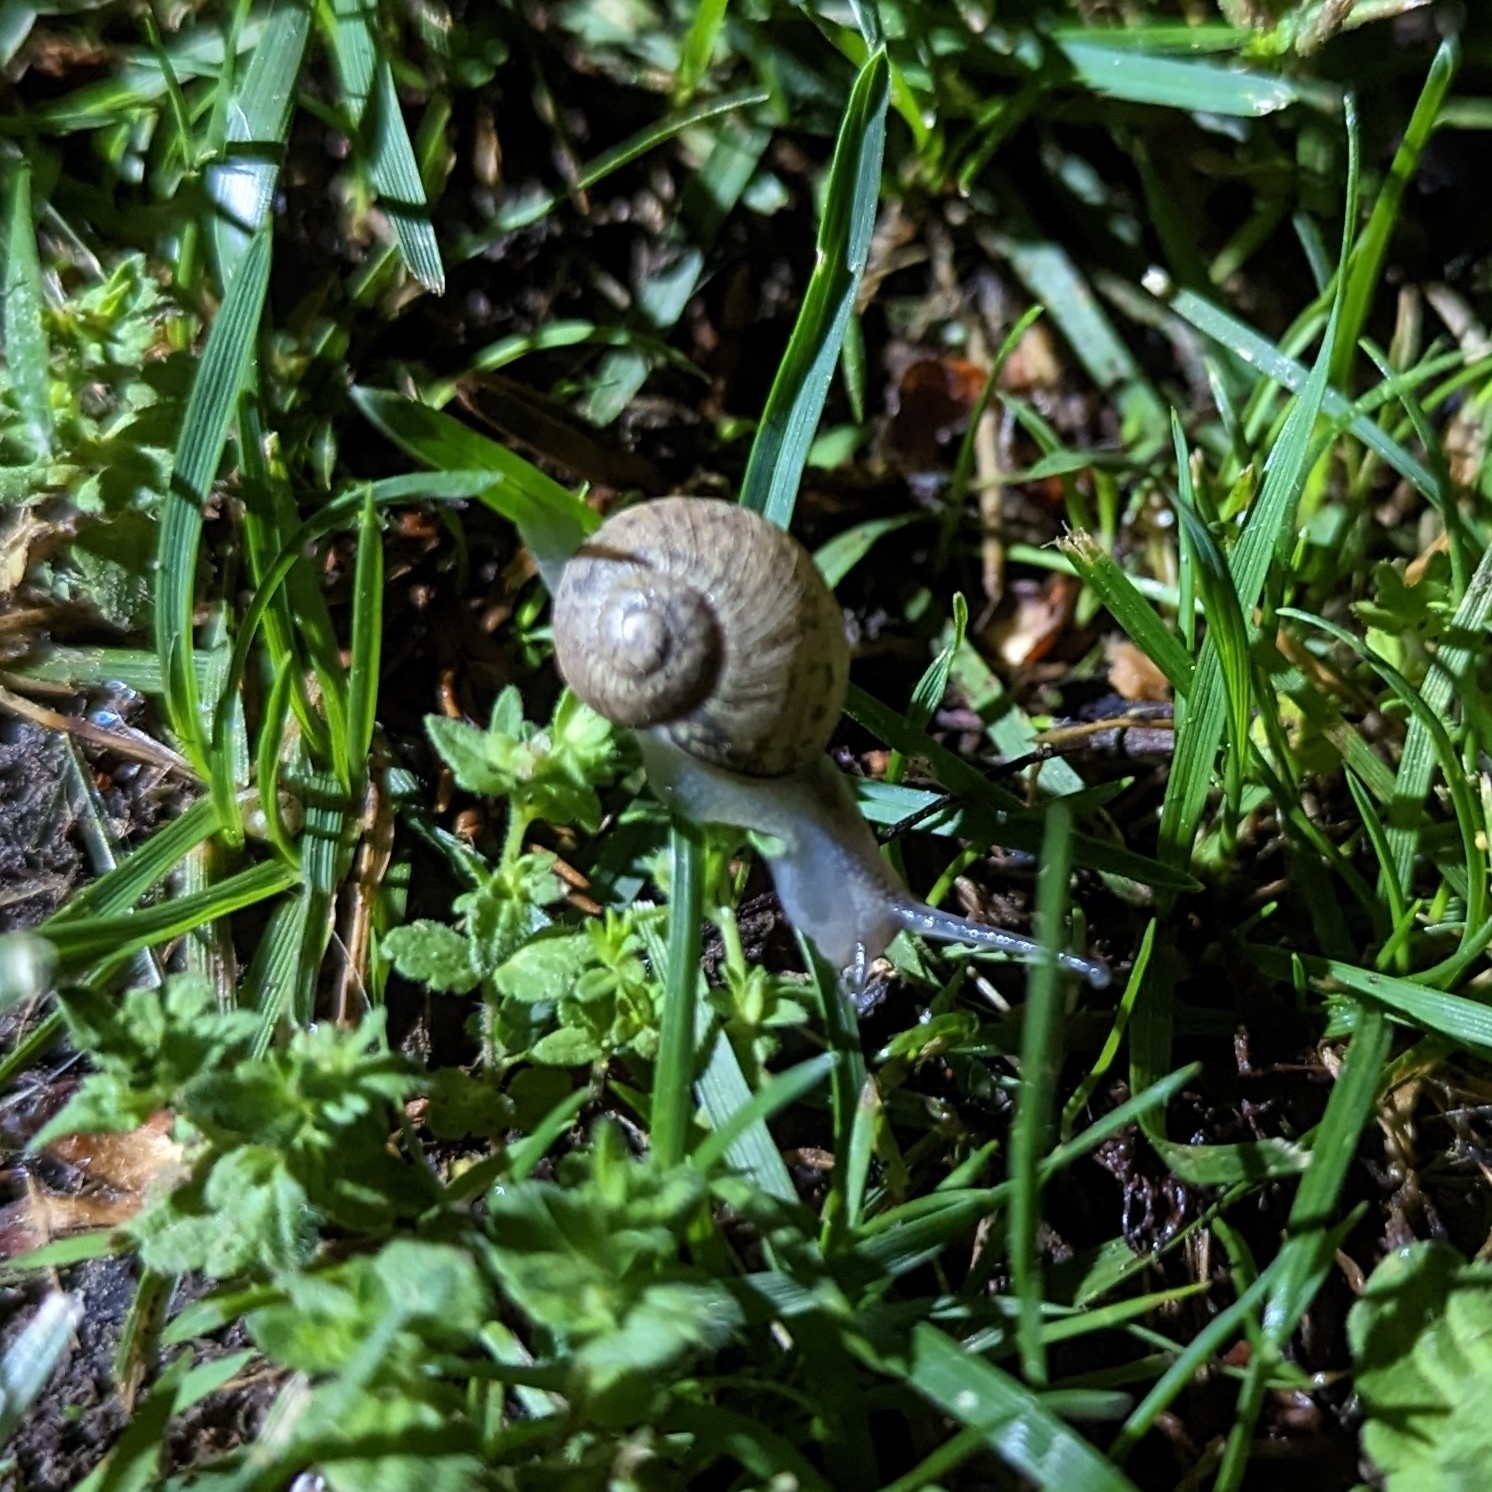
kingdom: Animalia
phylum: Mollusca
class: Gastropoda
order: Stylommatophora
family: Helicidae
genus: Cornu
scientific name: Cornu aspersum
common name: Brown garden snail
